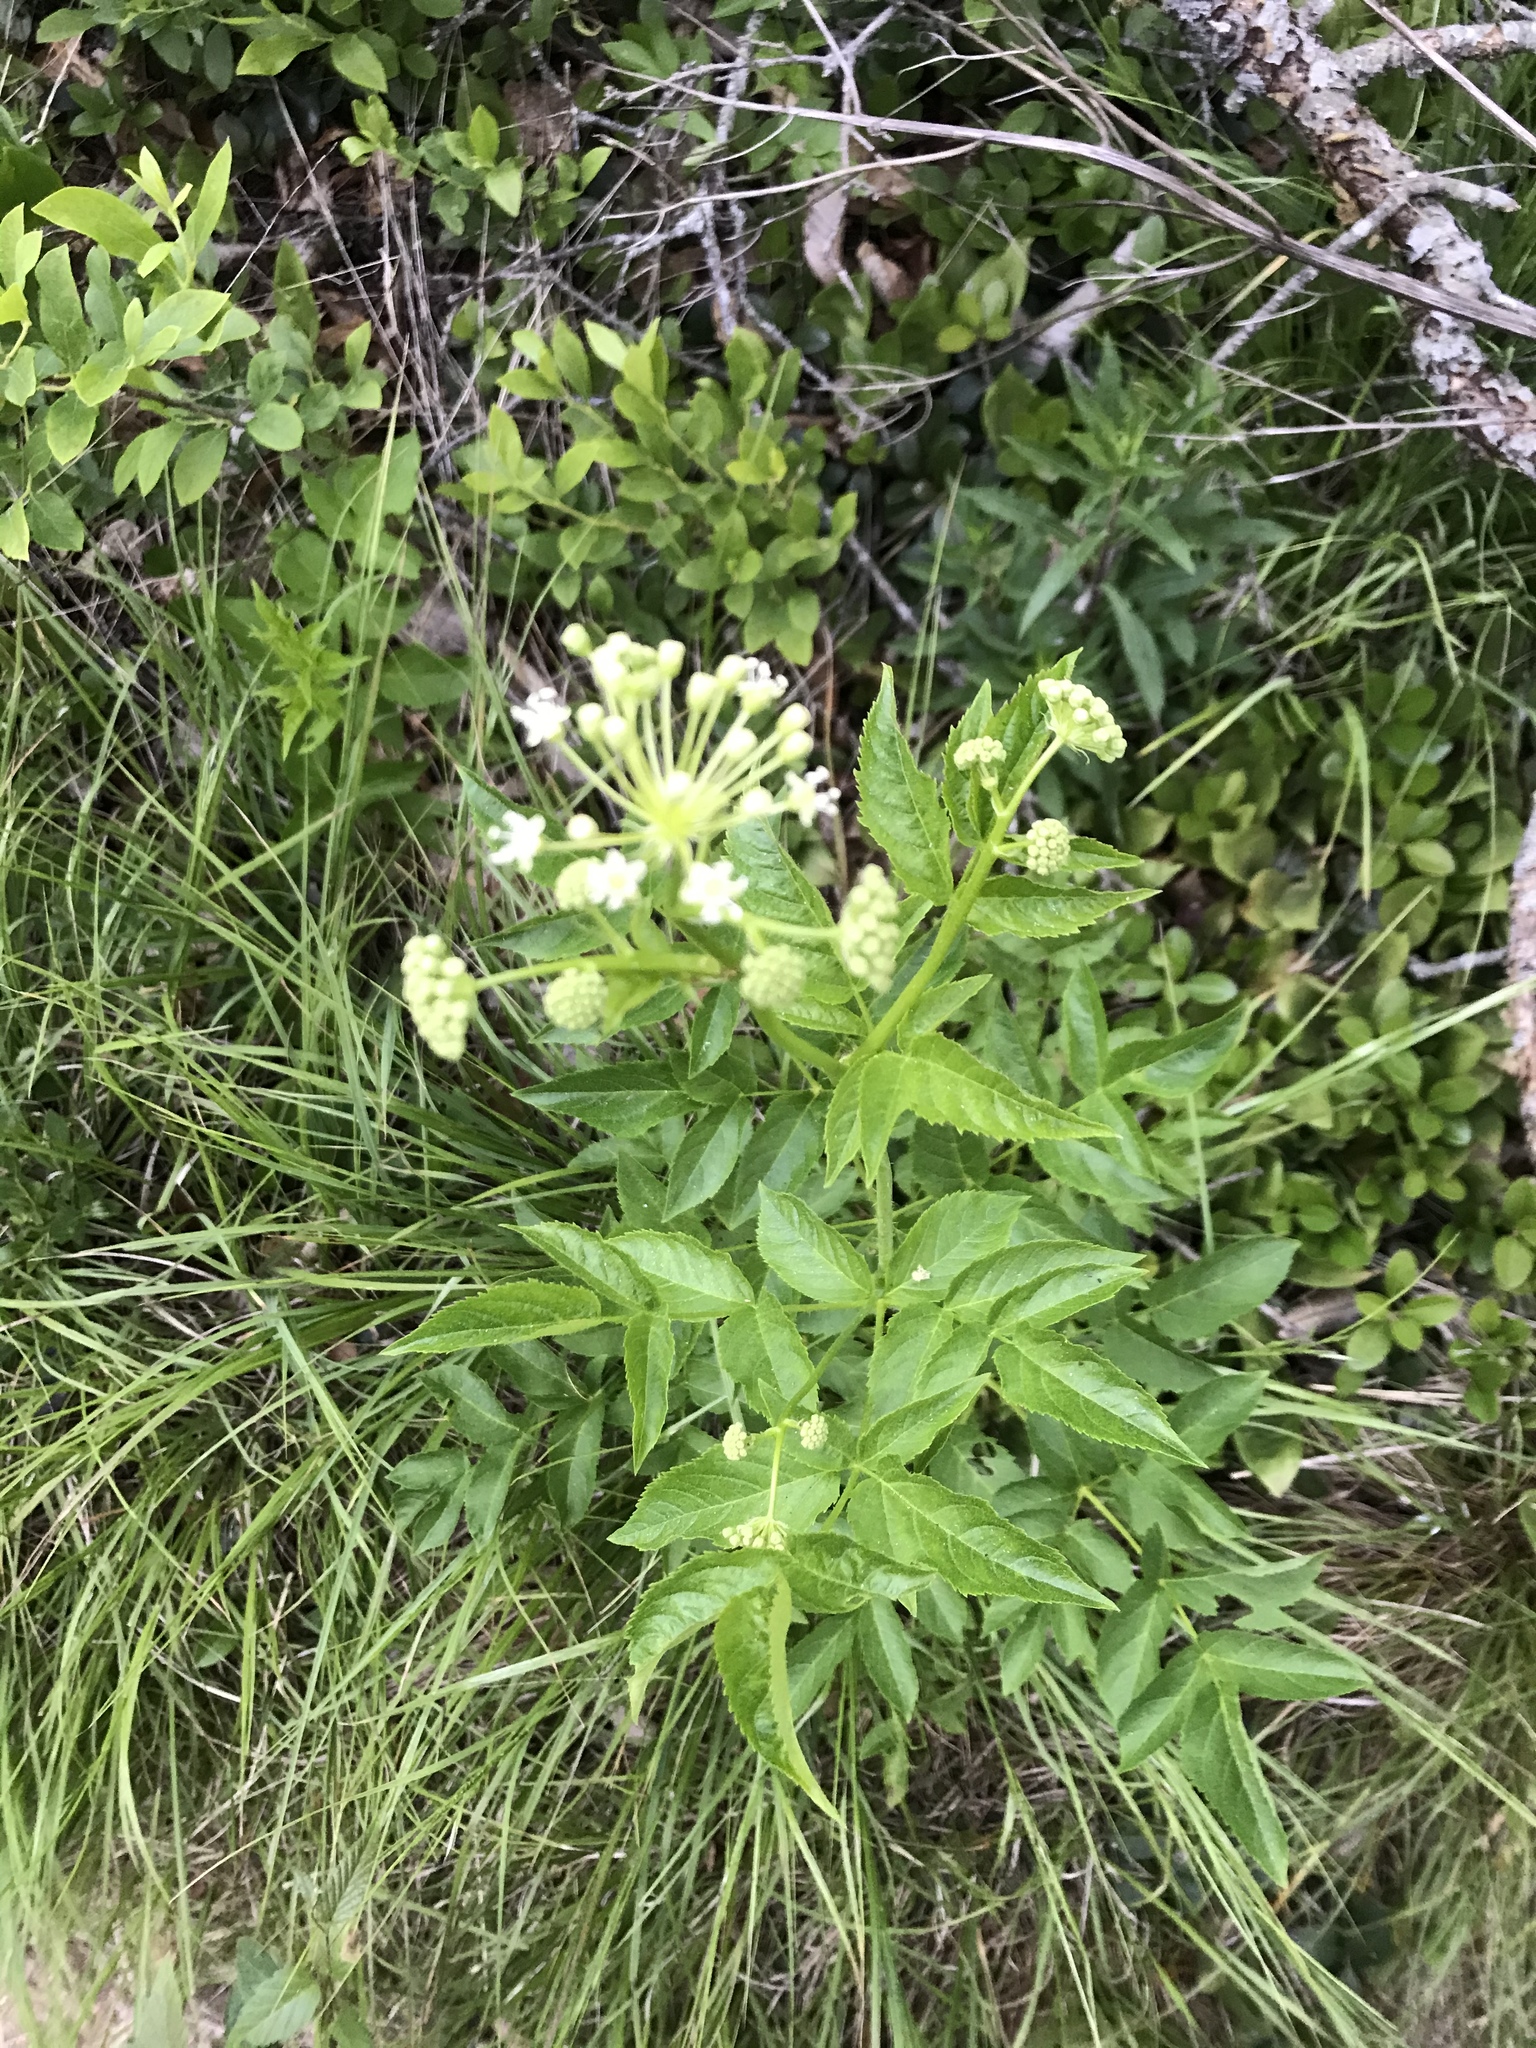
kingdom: Plantae
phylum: Tracheophyta
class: Magnoliopsida
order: Apiales
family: Araliaceae
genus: Aralia
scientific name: Aralia hispida
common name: Bristly sarsaparilla
